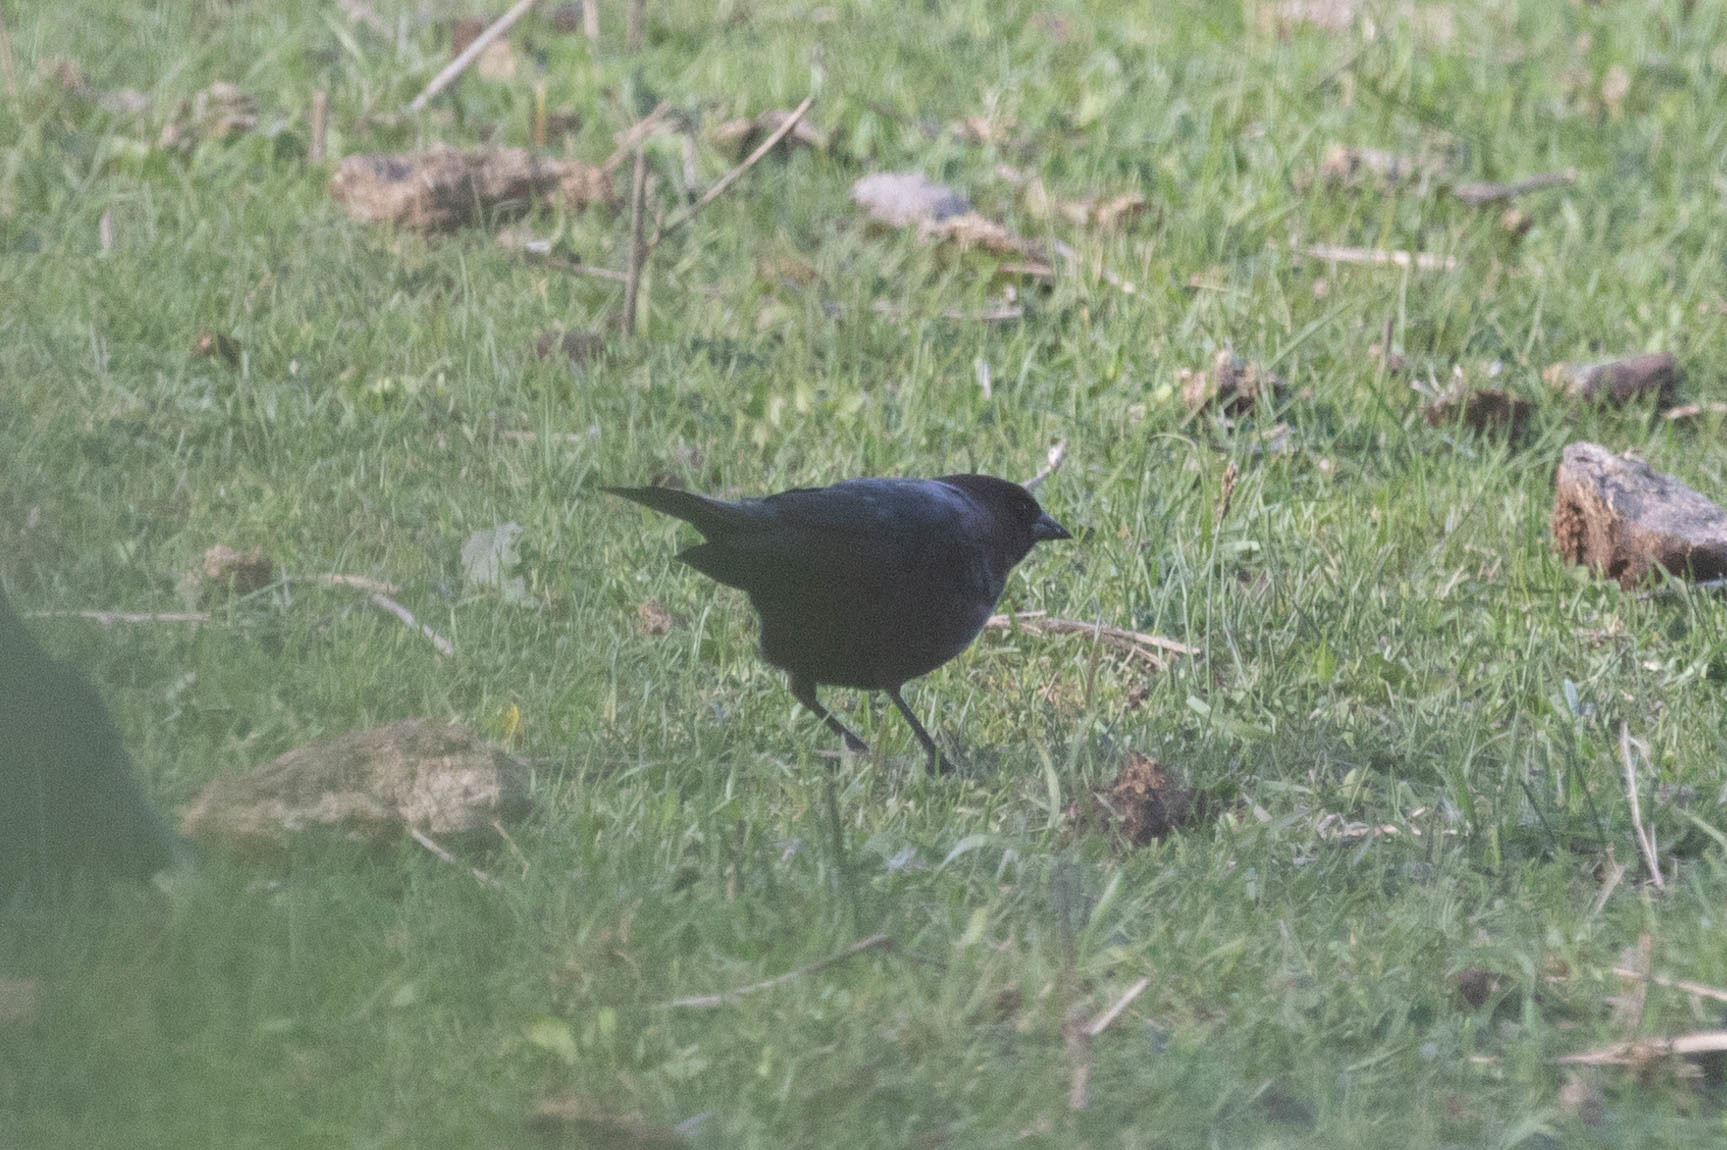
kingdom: Animalia
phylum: Chordata
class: Aves
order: Passeriformes
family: Icteridae
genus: Molothrus
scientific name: Molothrus ater
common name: Brown-headed cowbird
